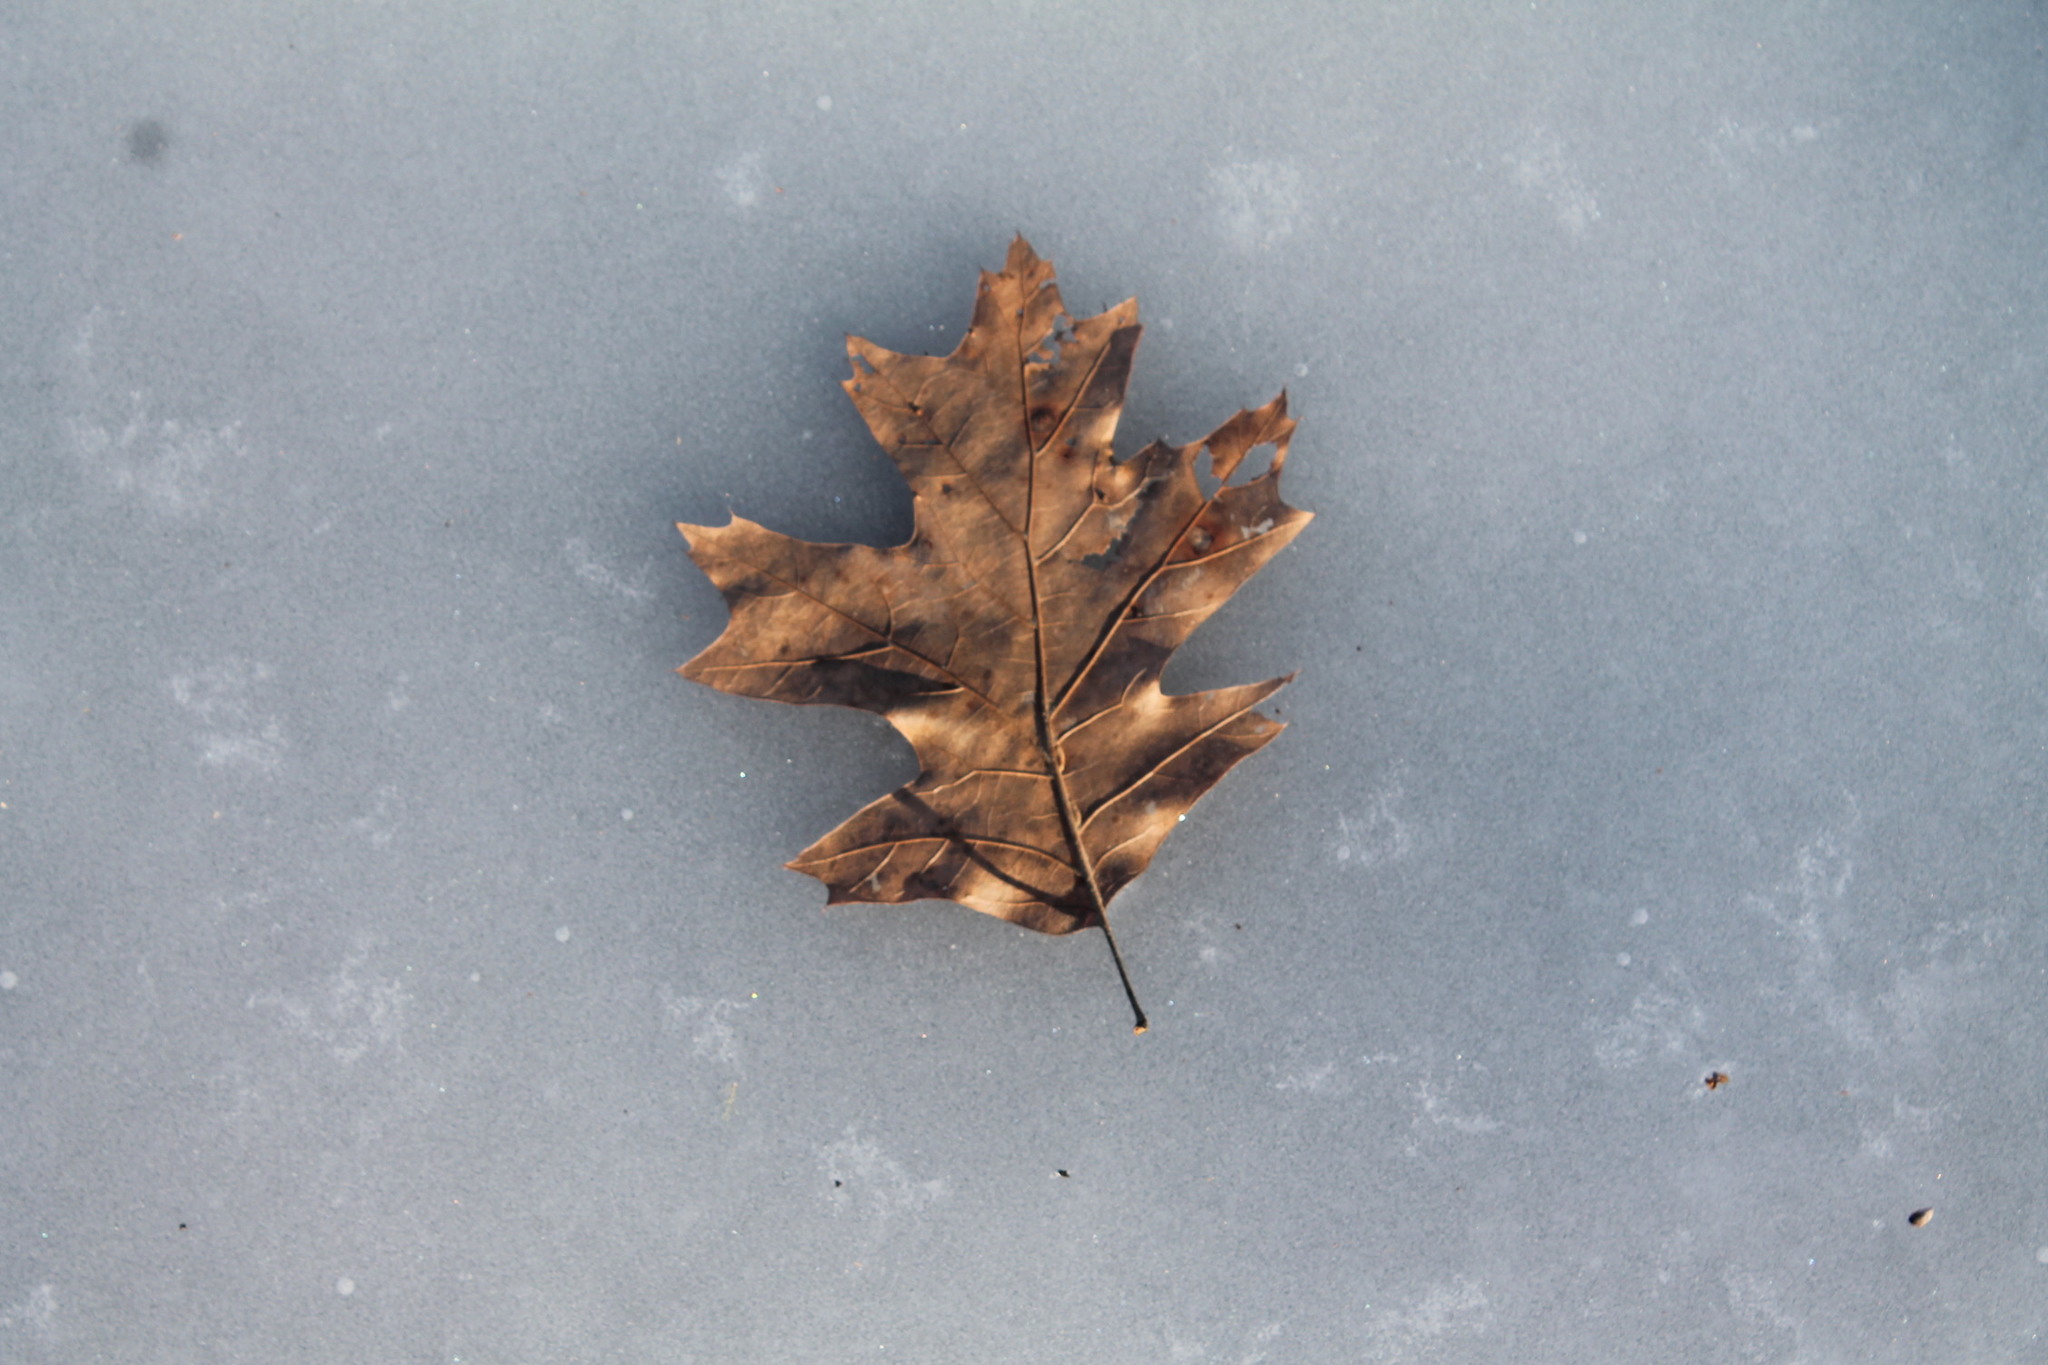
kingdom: Plantae
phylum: Tracheophyta
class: Magnoliopsida
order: Fagales
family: Fagaceae
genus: Quercus
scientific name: Quercus rubra
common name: Red oak
